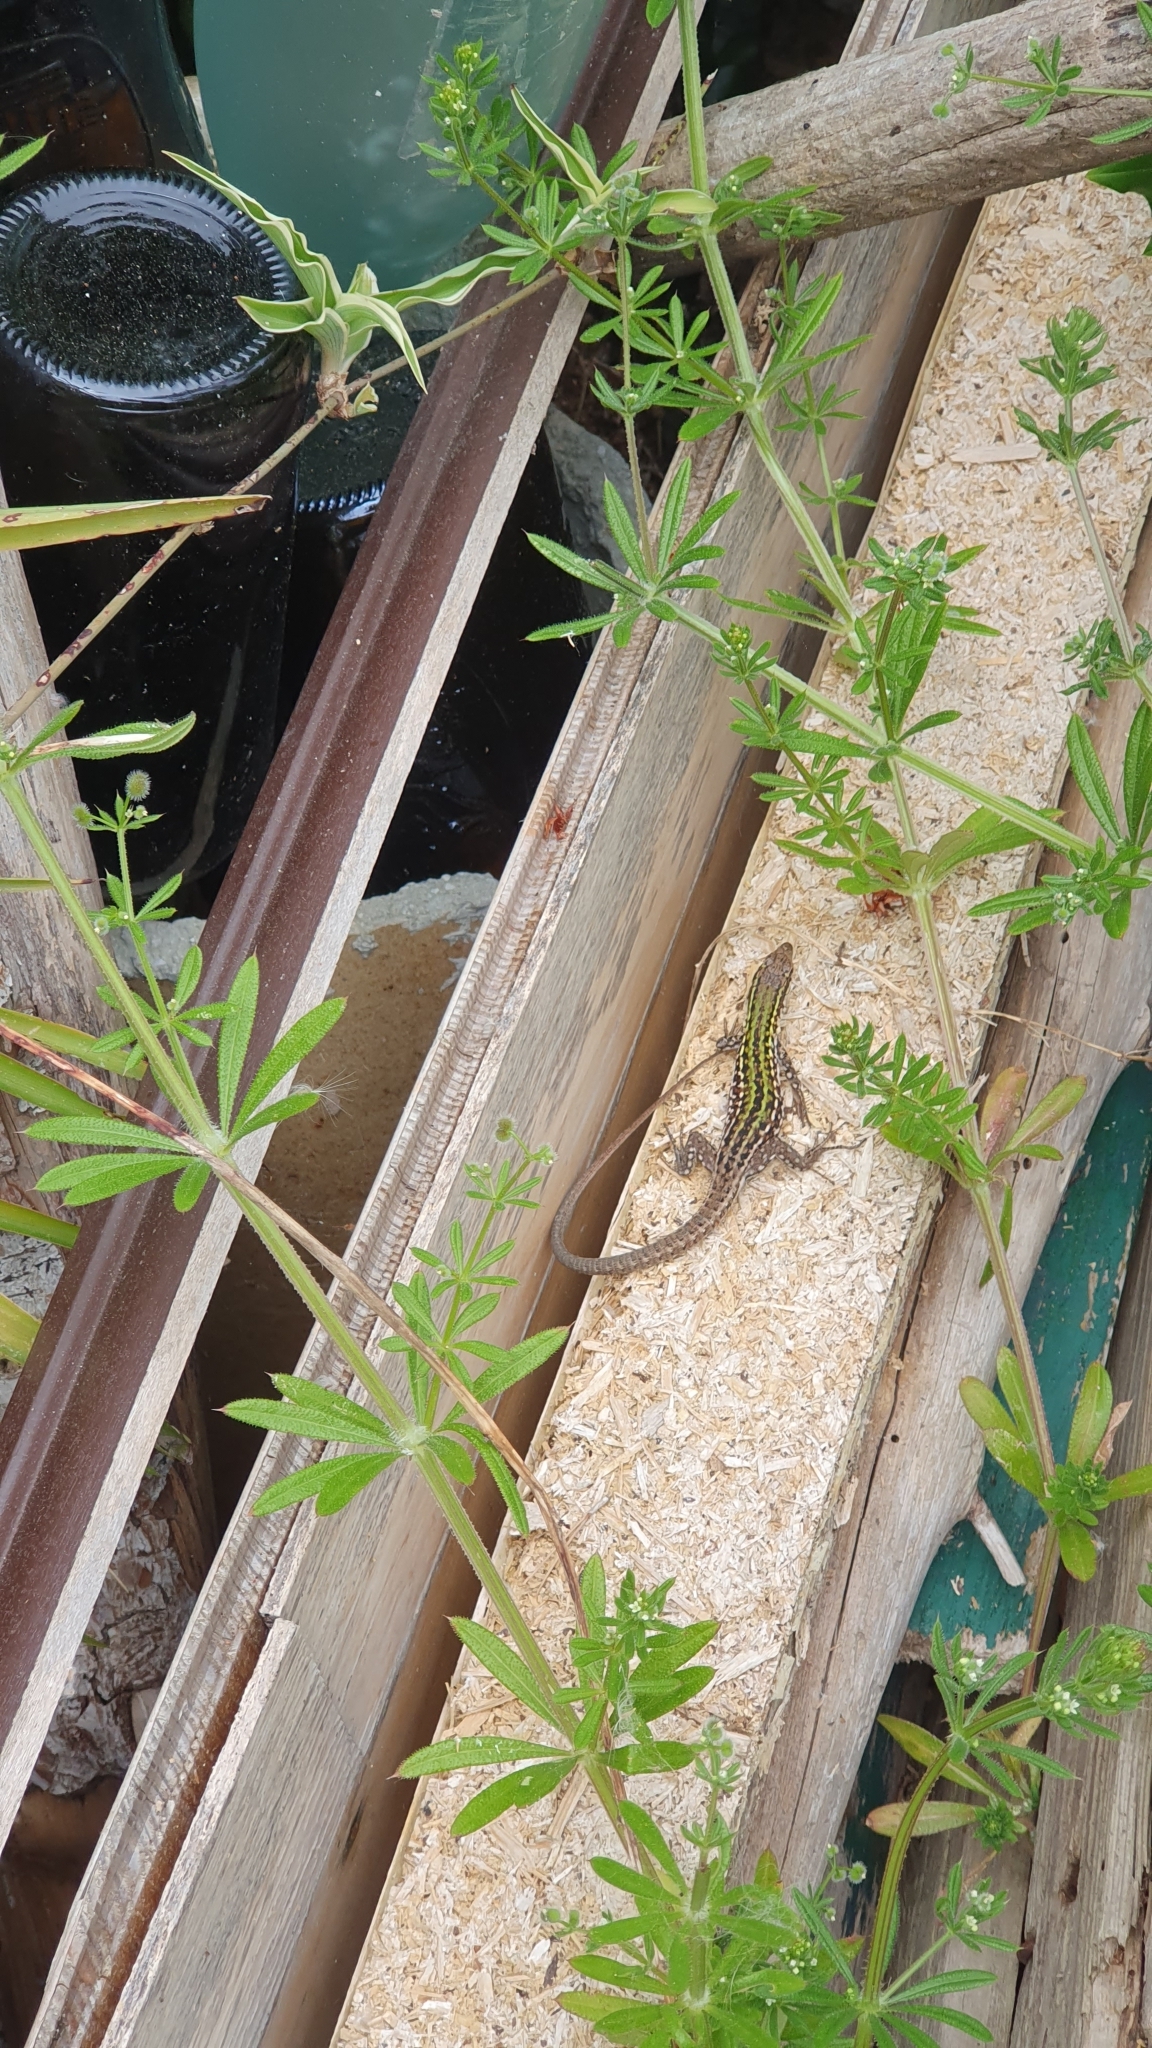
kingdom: Animalia
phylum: Chordata
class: Squamata
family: Lacertidae
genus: Podarcis
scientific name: Podarcis siculus
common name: Italian wall lizard
